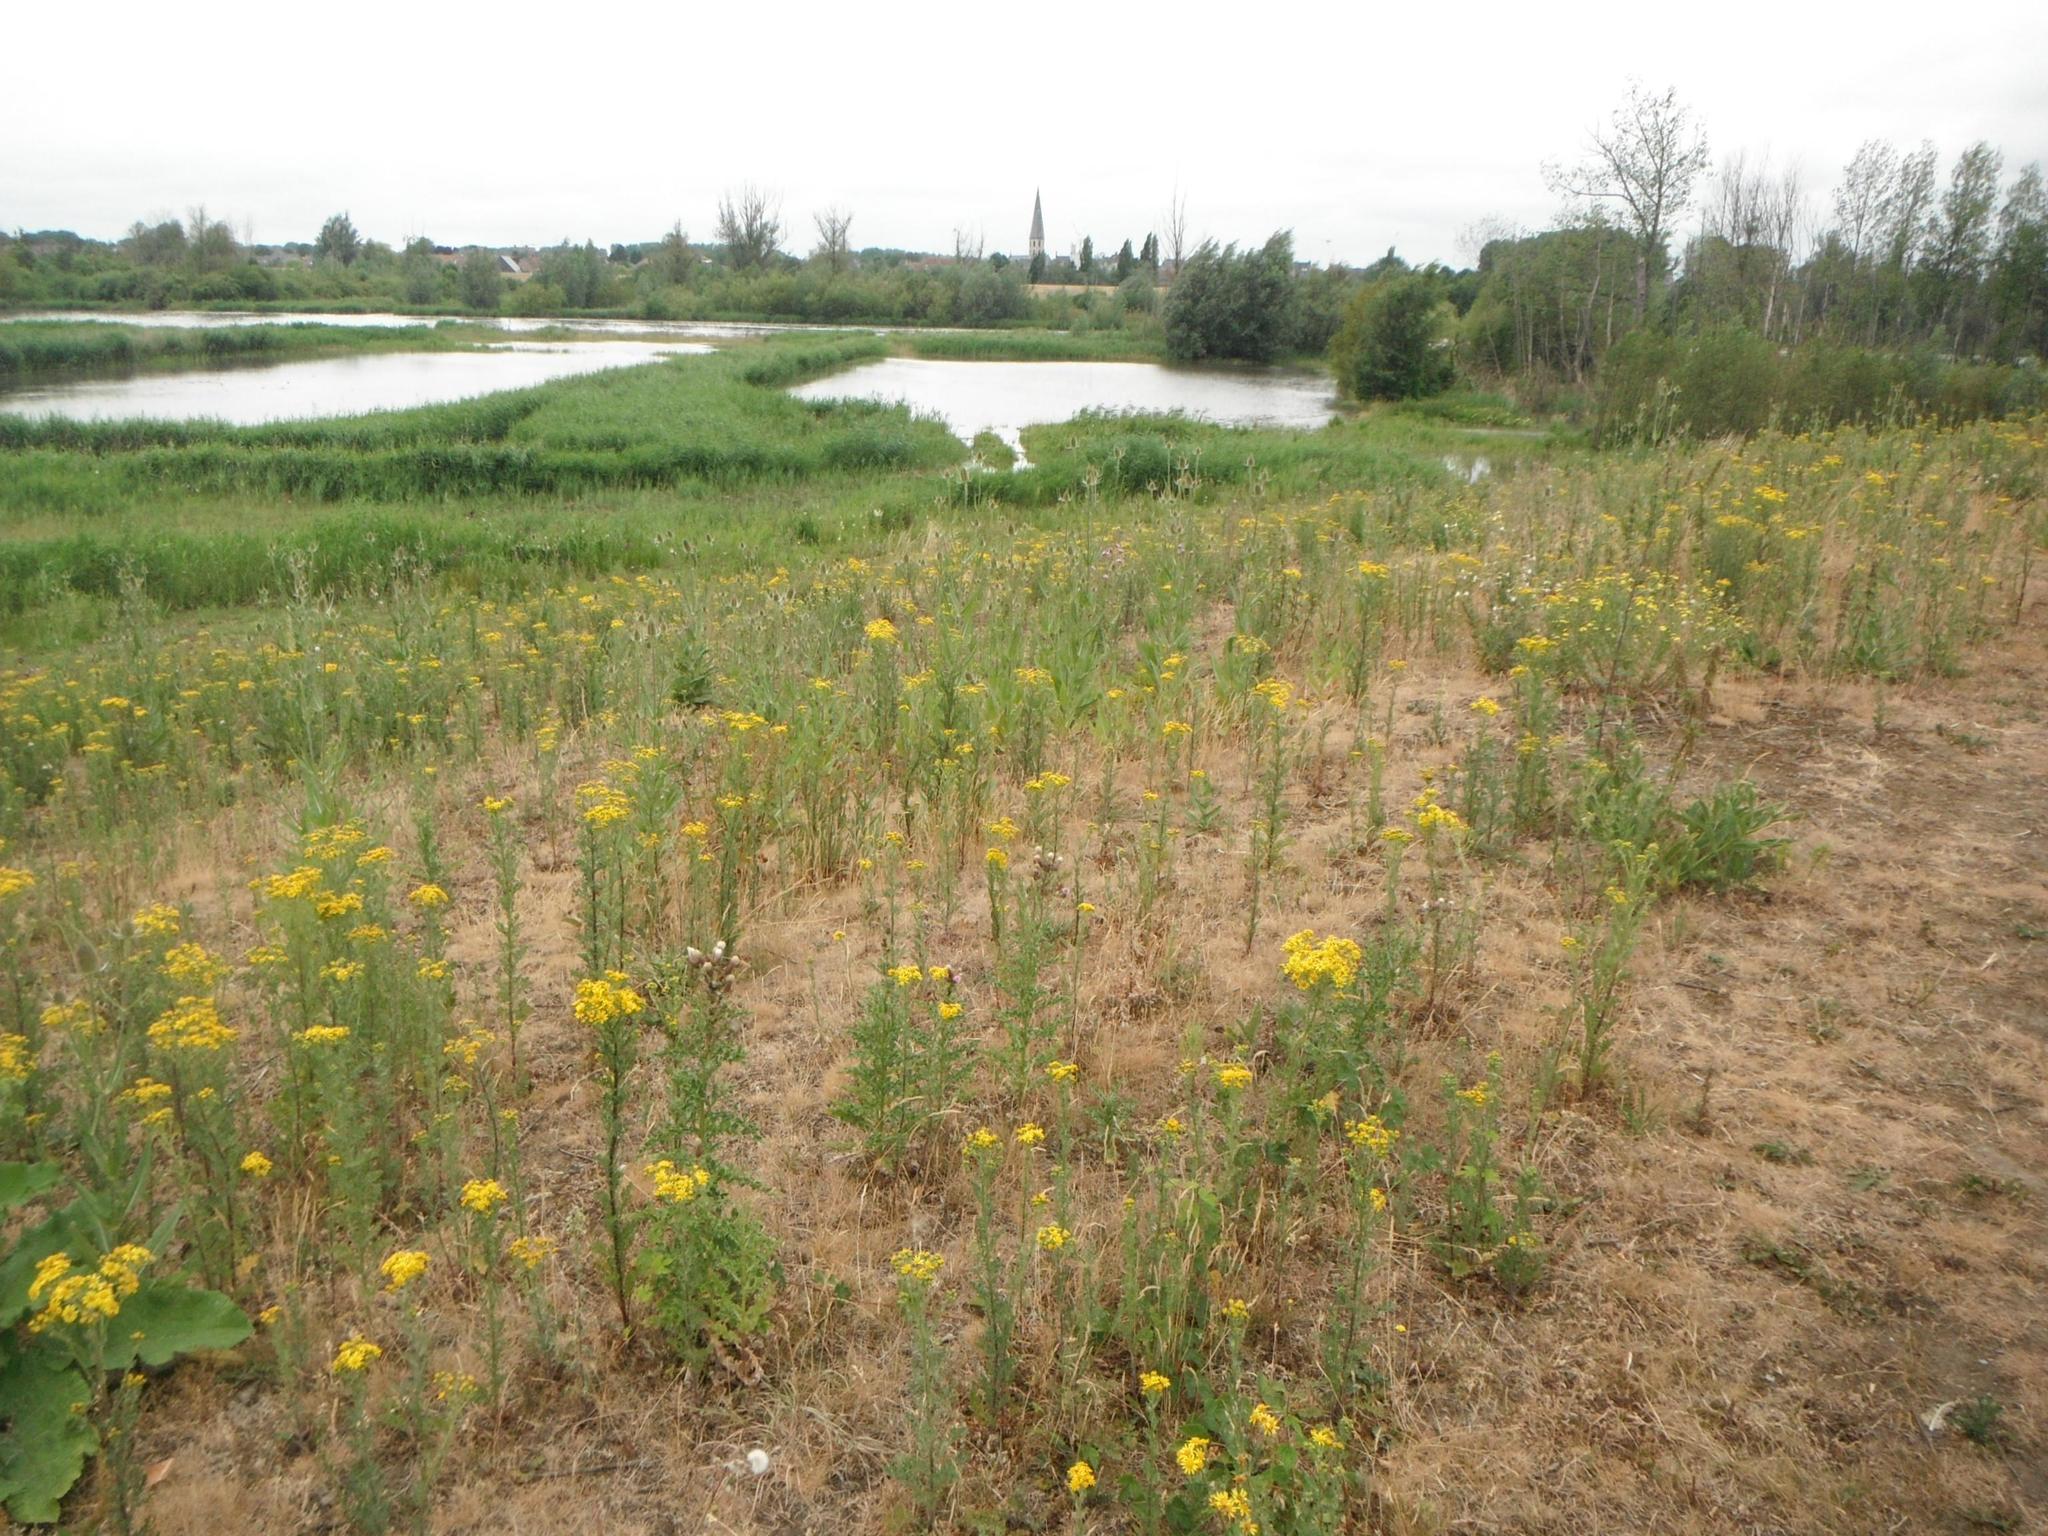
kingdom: Plantae
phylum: Tracheophyta
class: Magnoliopsida
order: Asterales
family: Asteraceae
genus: Jacobaea
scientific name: Jacobaea vulgaris
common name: Stinking willie
